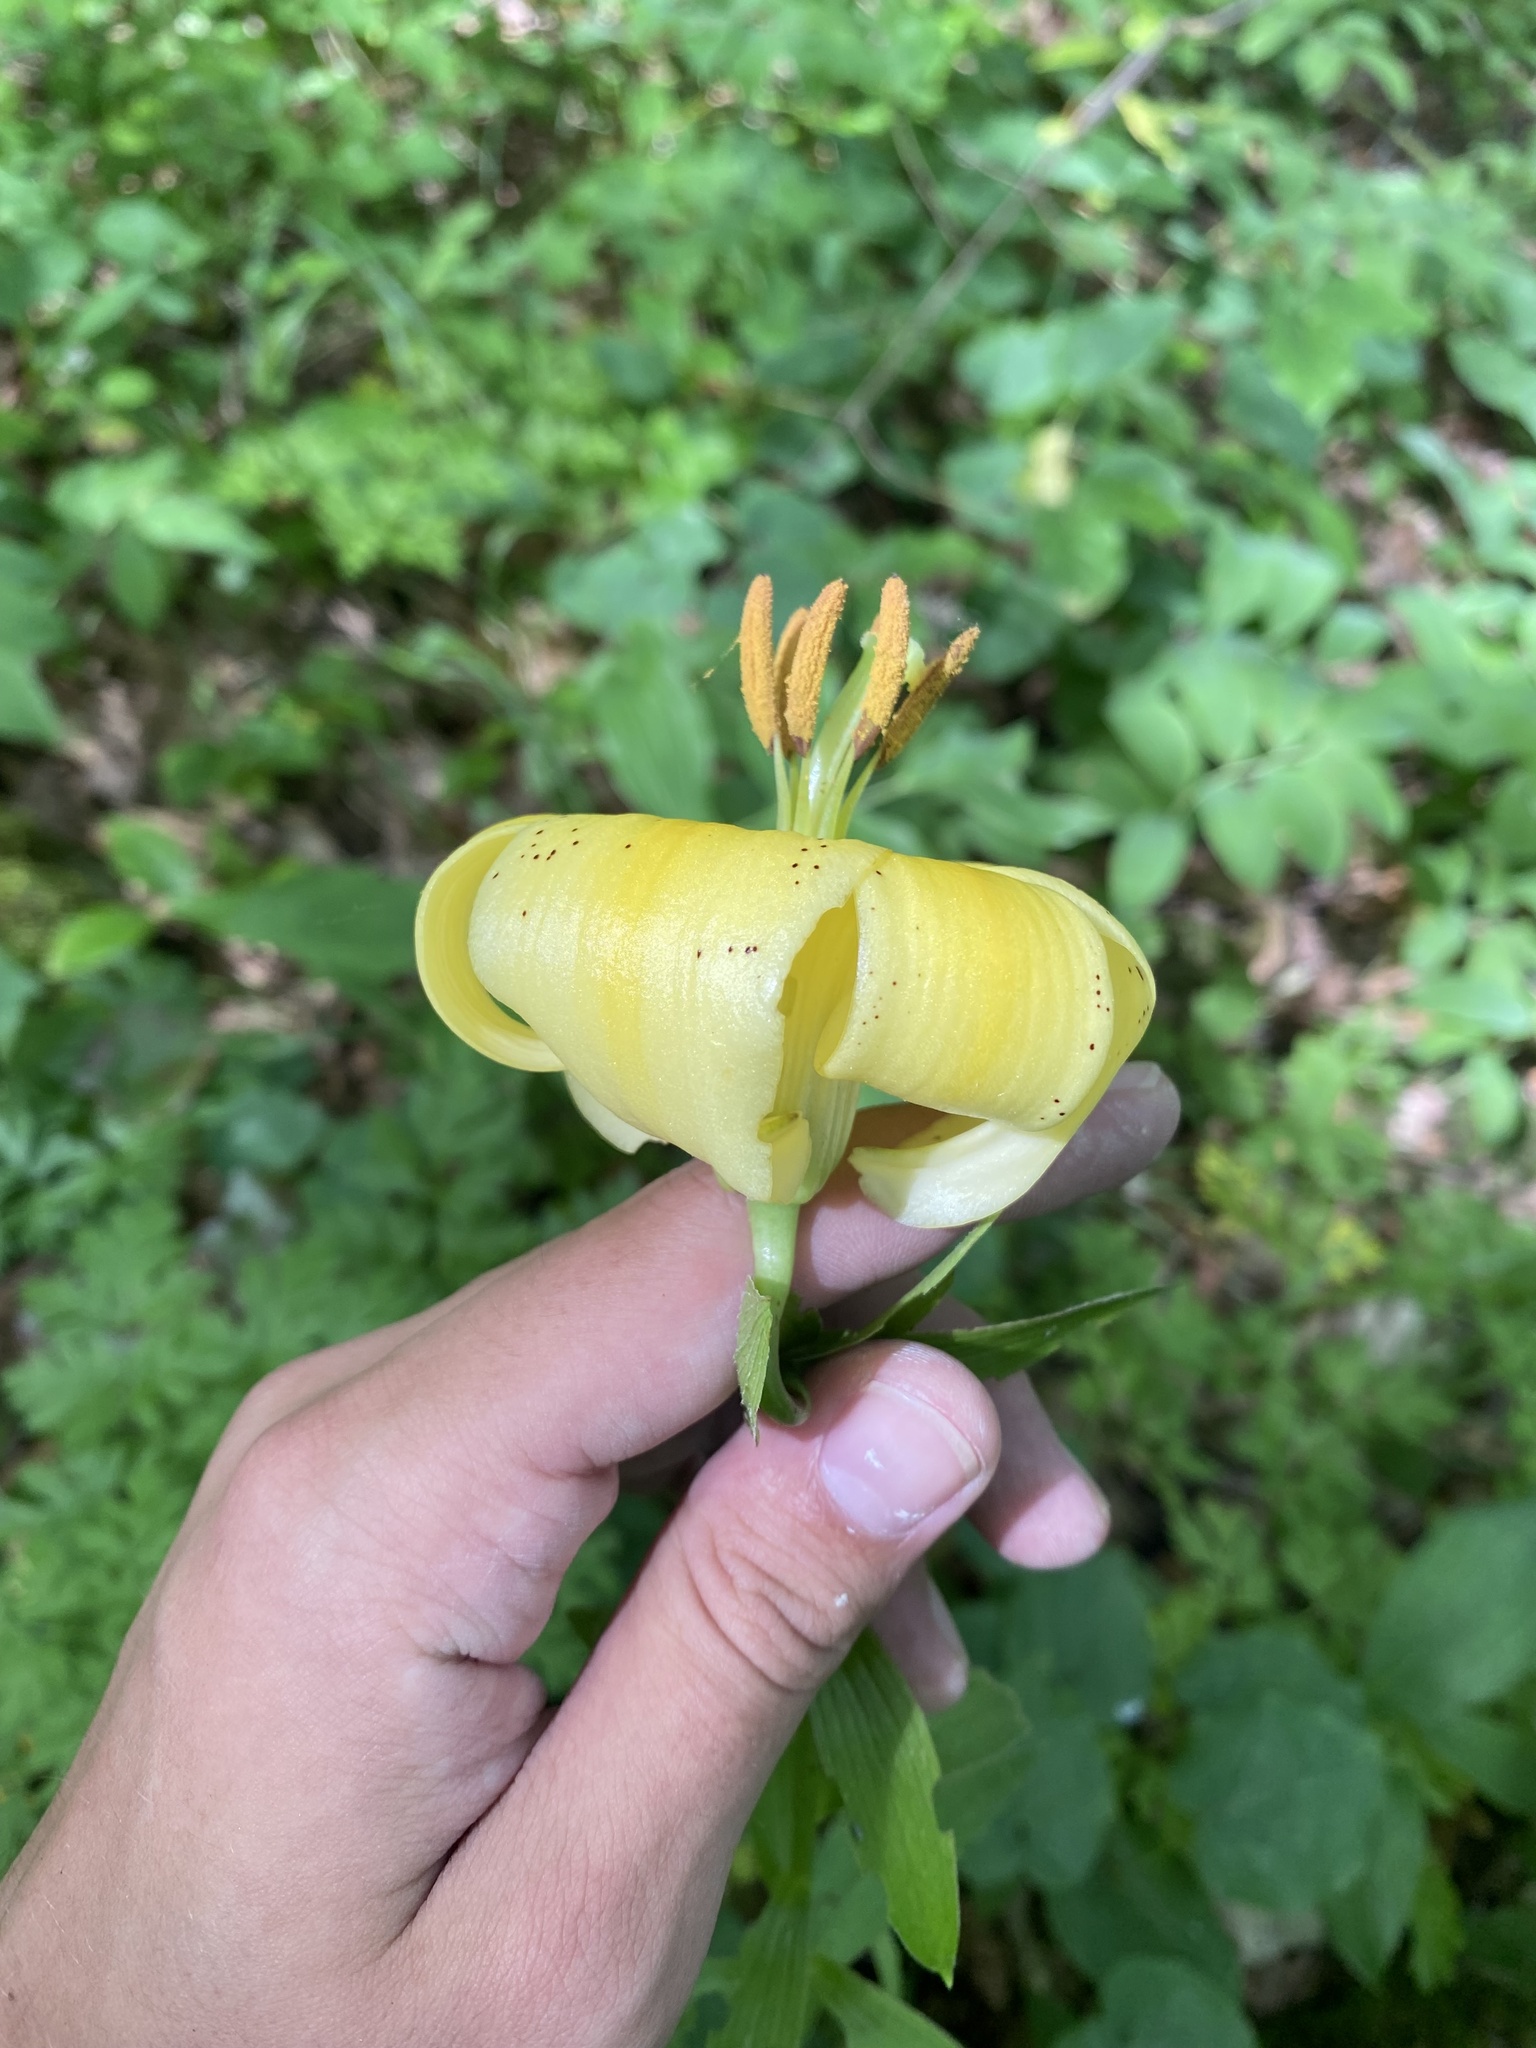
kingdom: Plantae
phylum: Tracheophyta
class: Liliopsida
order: Liliales
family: Liliaceae
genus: Lilium
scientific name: Lilium monadelphum
